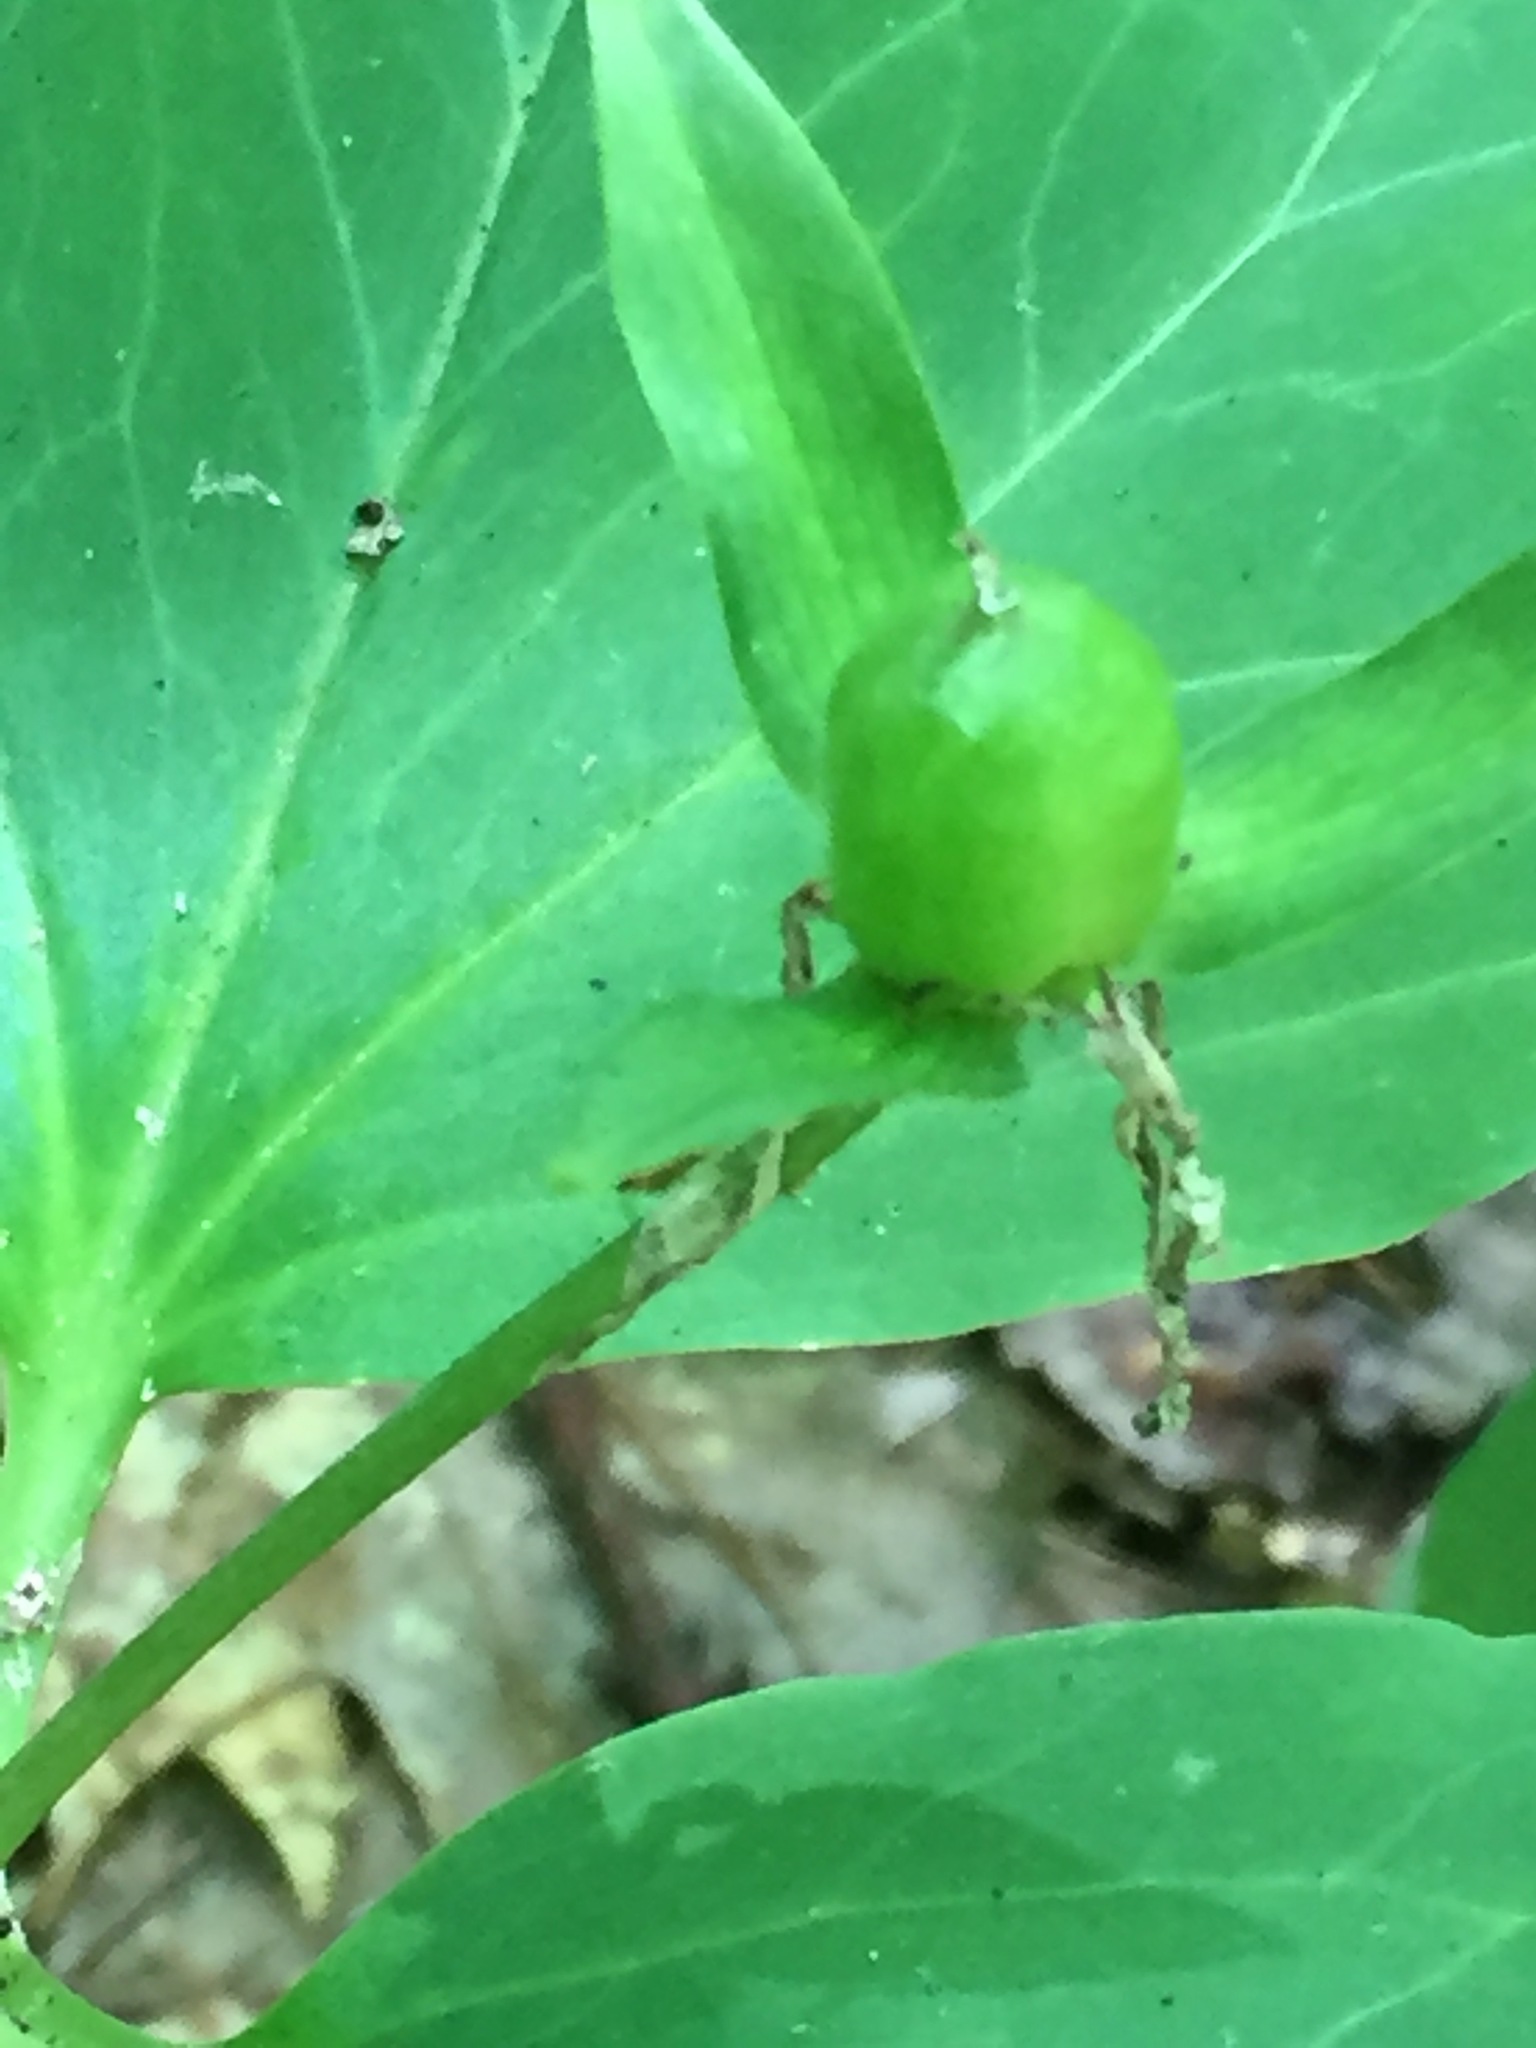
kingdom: Plantae
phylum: Tracheophyta
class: Liliopsida
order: Liliales
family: Melanthiaceae
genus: Trillium
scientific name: Trillium undulatum
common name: Paint trillium
